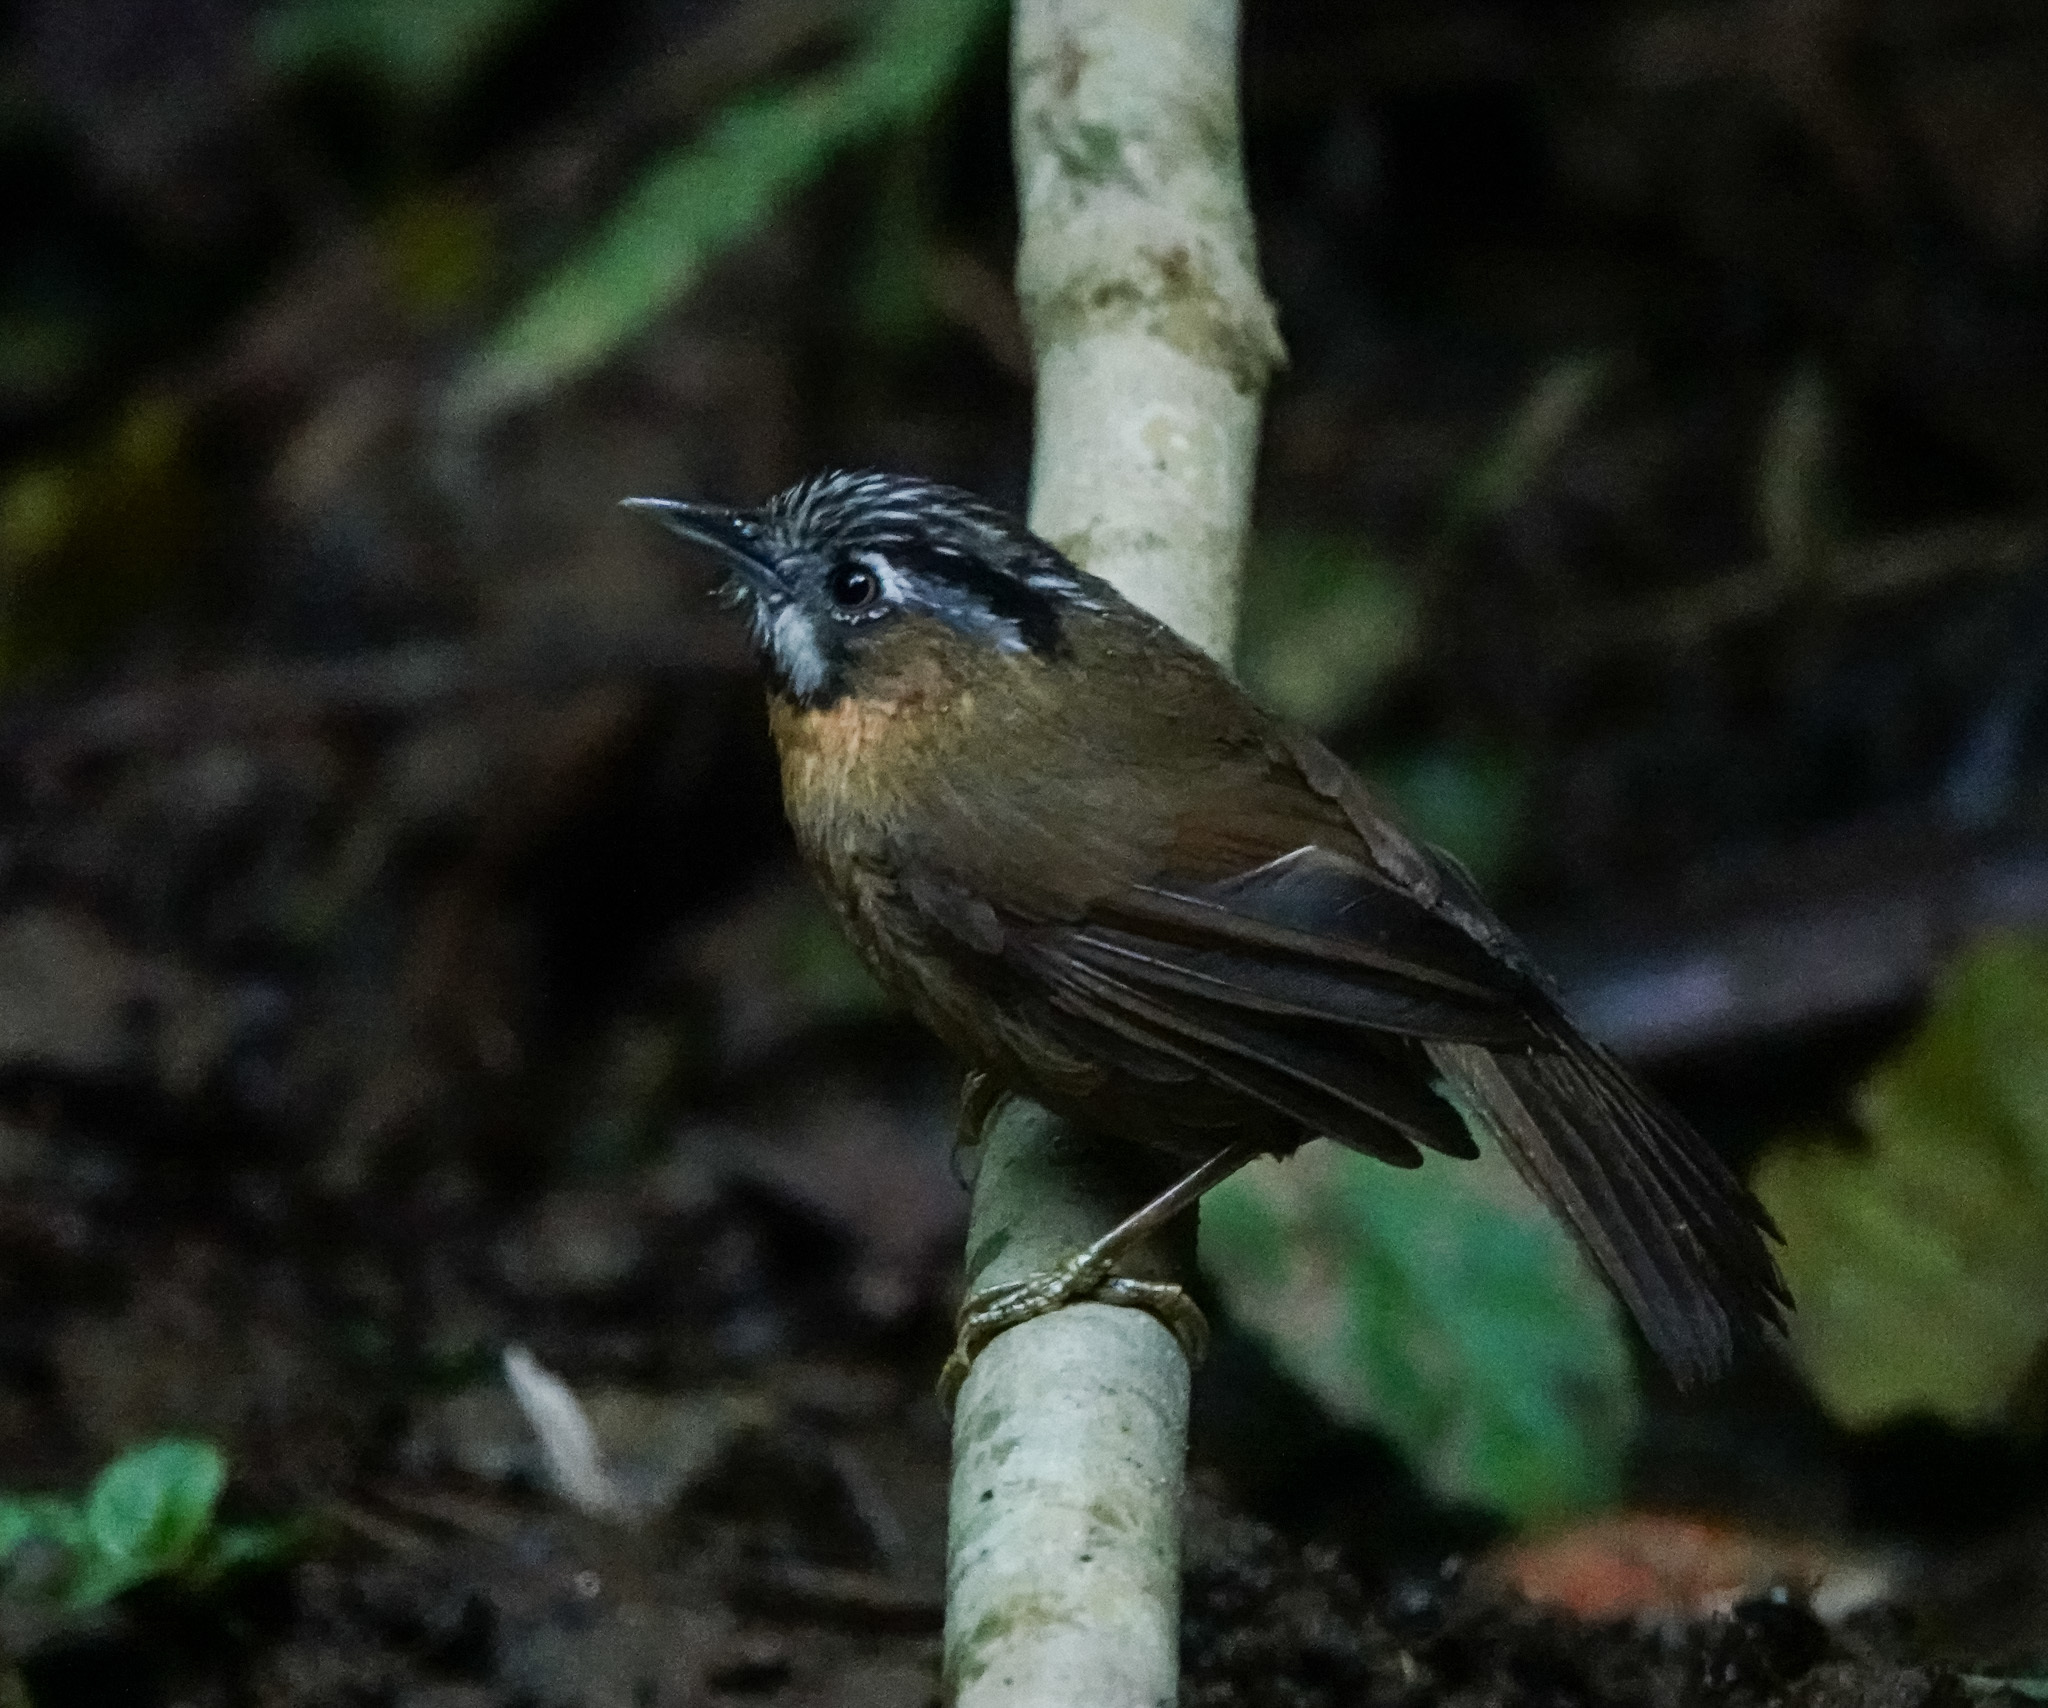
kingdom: Animalia
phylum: Chordata
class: Aves
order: Passeriformes
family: Timaliidae
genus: Stachyris
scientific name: Stachyris nigriceps
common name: Grey-throated babbler
